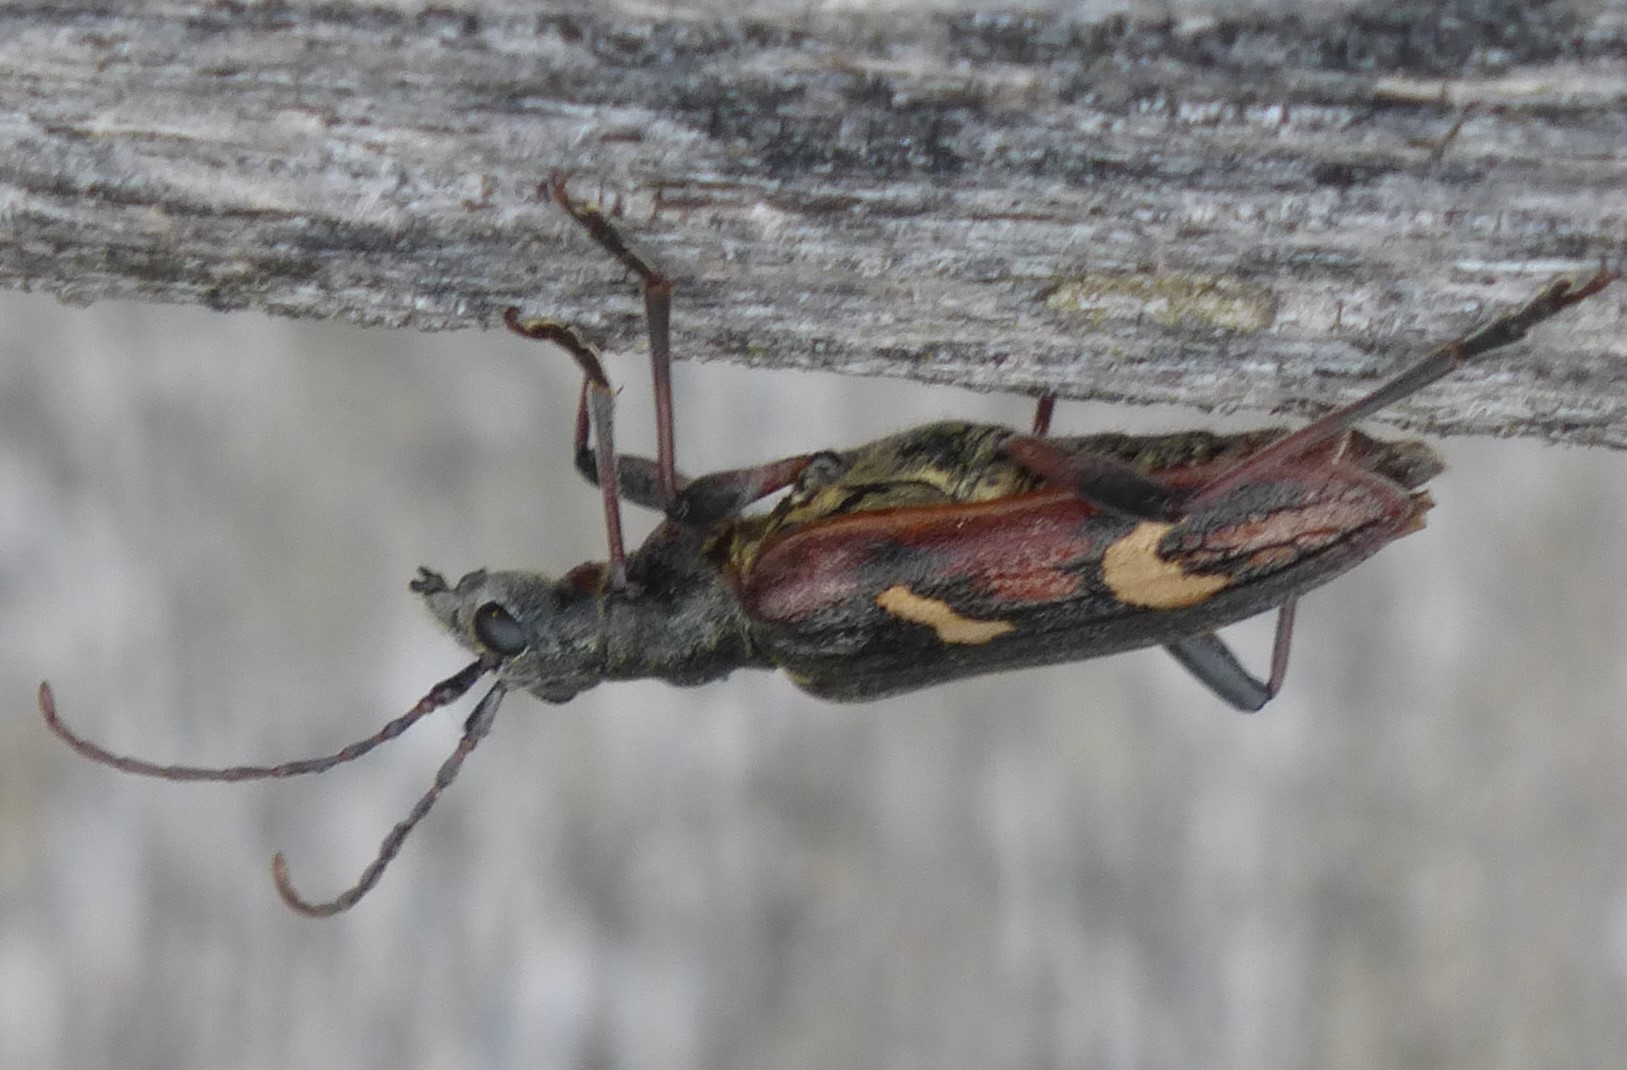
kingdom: Animalia
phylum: Arthropoda
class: Insecta
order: Coleoptera
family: Cerambycidae
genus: Rhagium
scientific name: Rhagium bifasciatum
